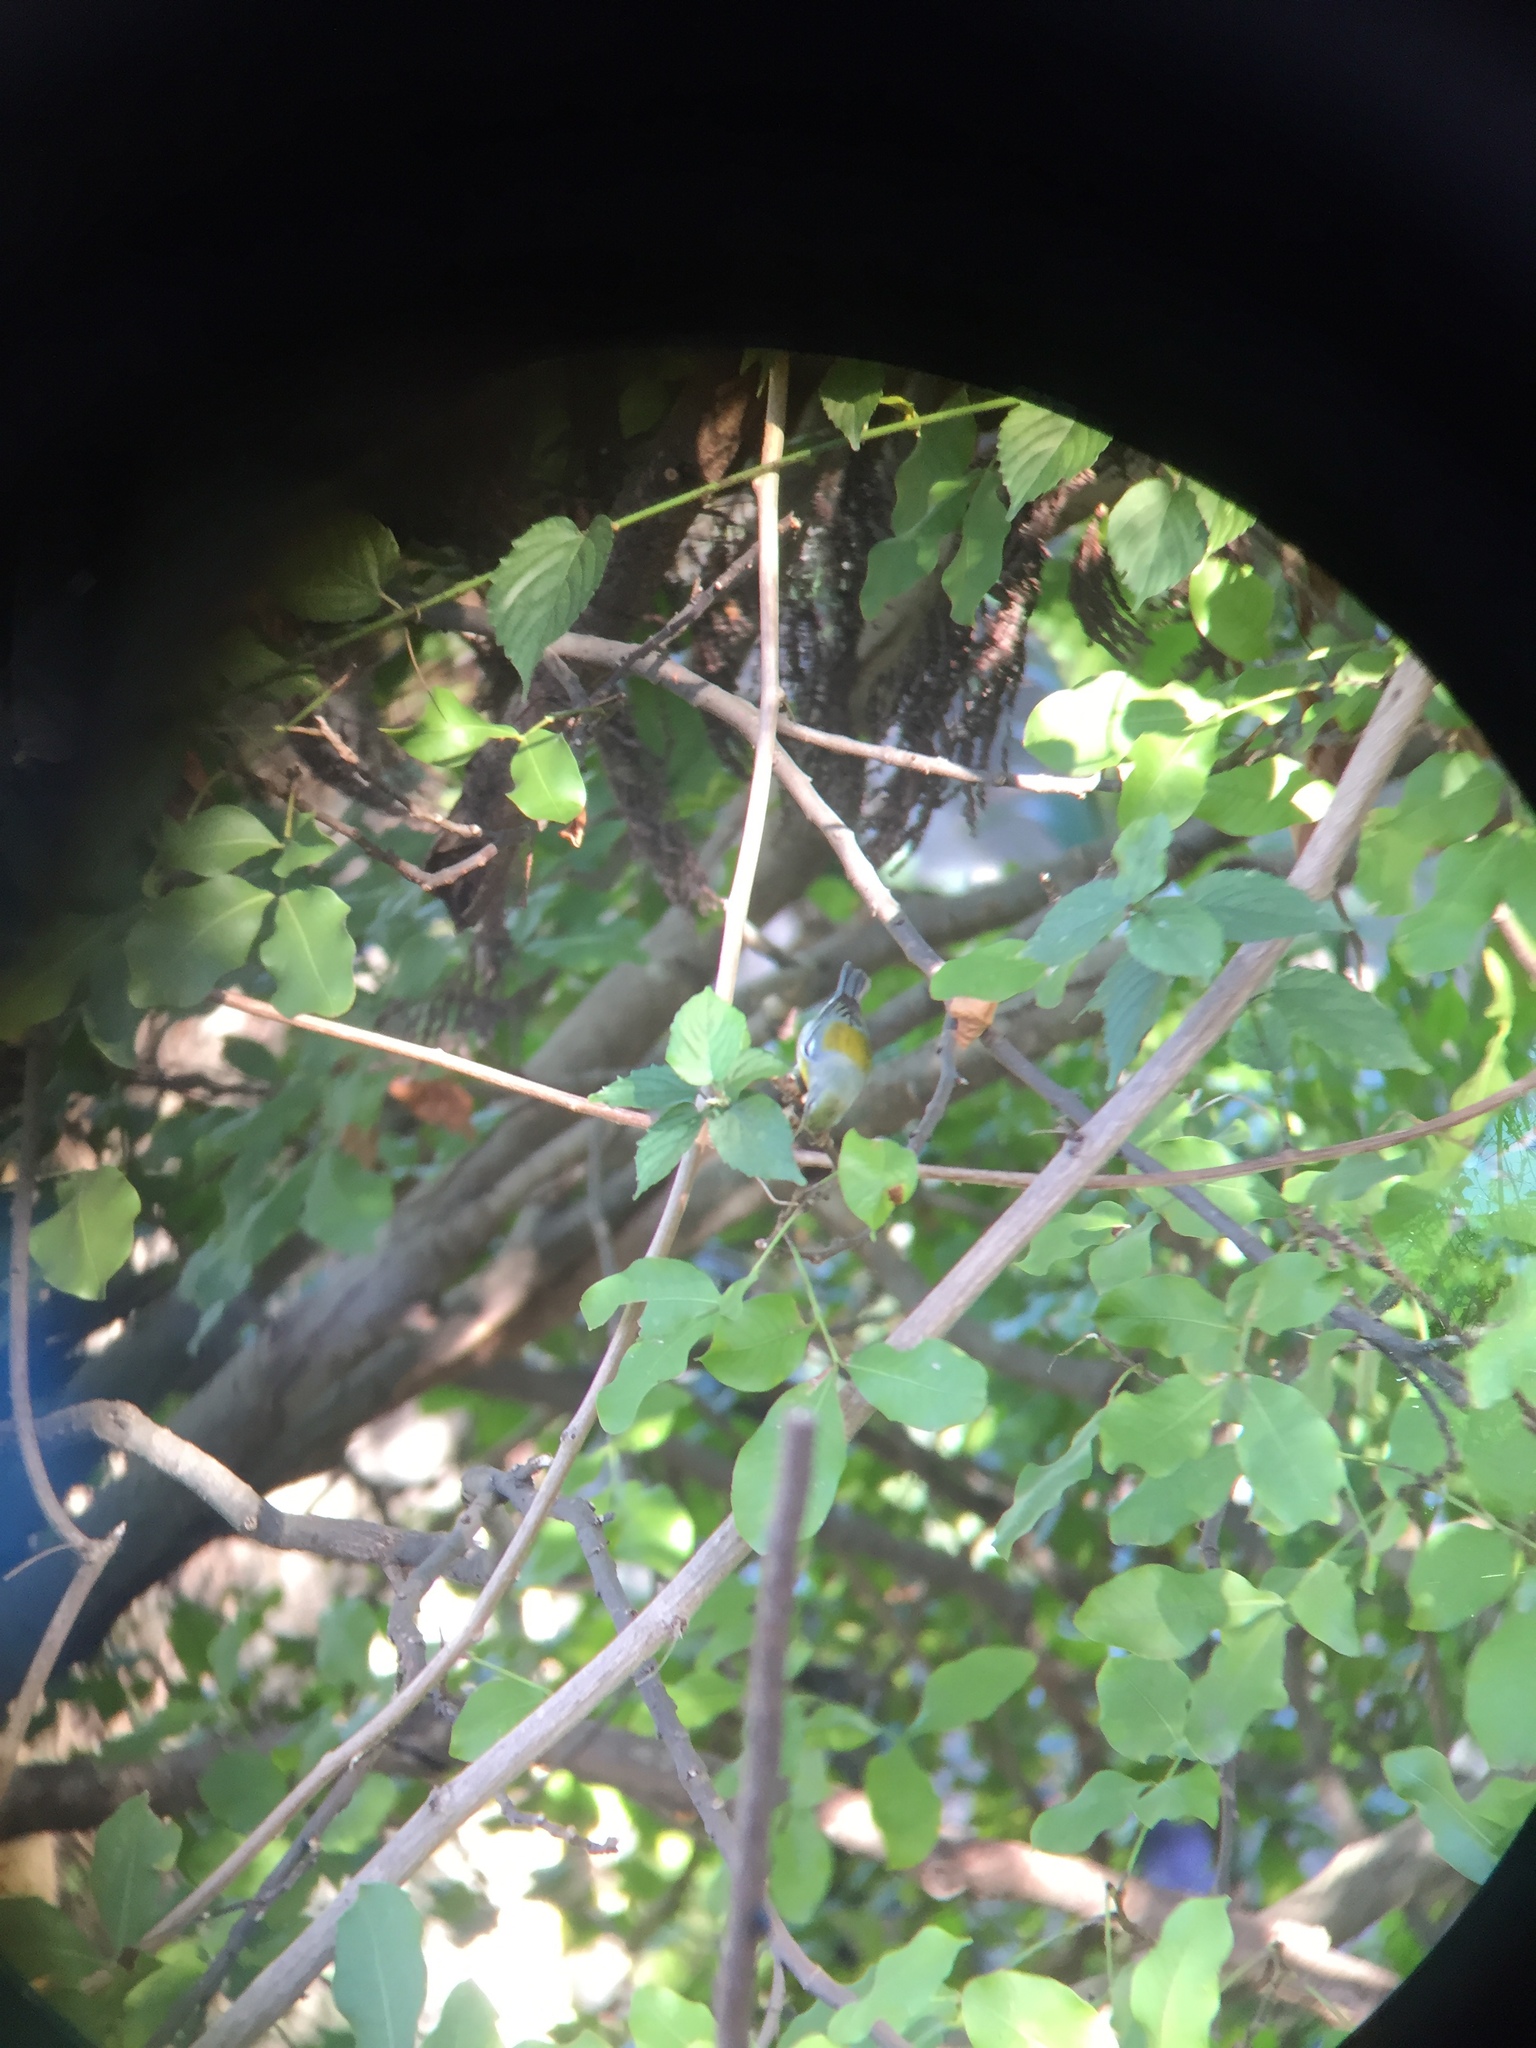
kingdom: Animalia
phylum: Chordata
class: Aves
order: Passeriformes
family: Parulidae
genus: Setophaga
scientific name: Setophaga americana
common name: Northern parula
